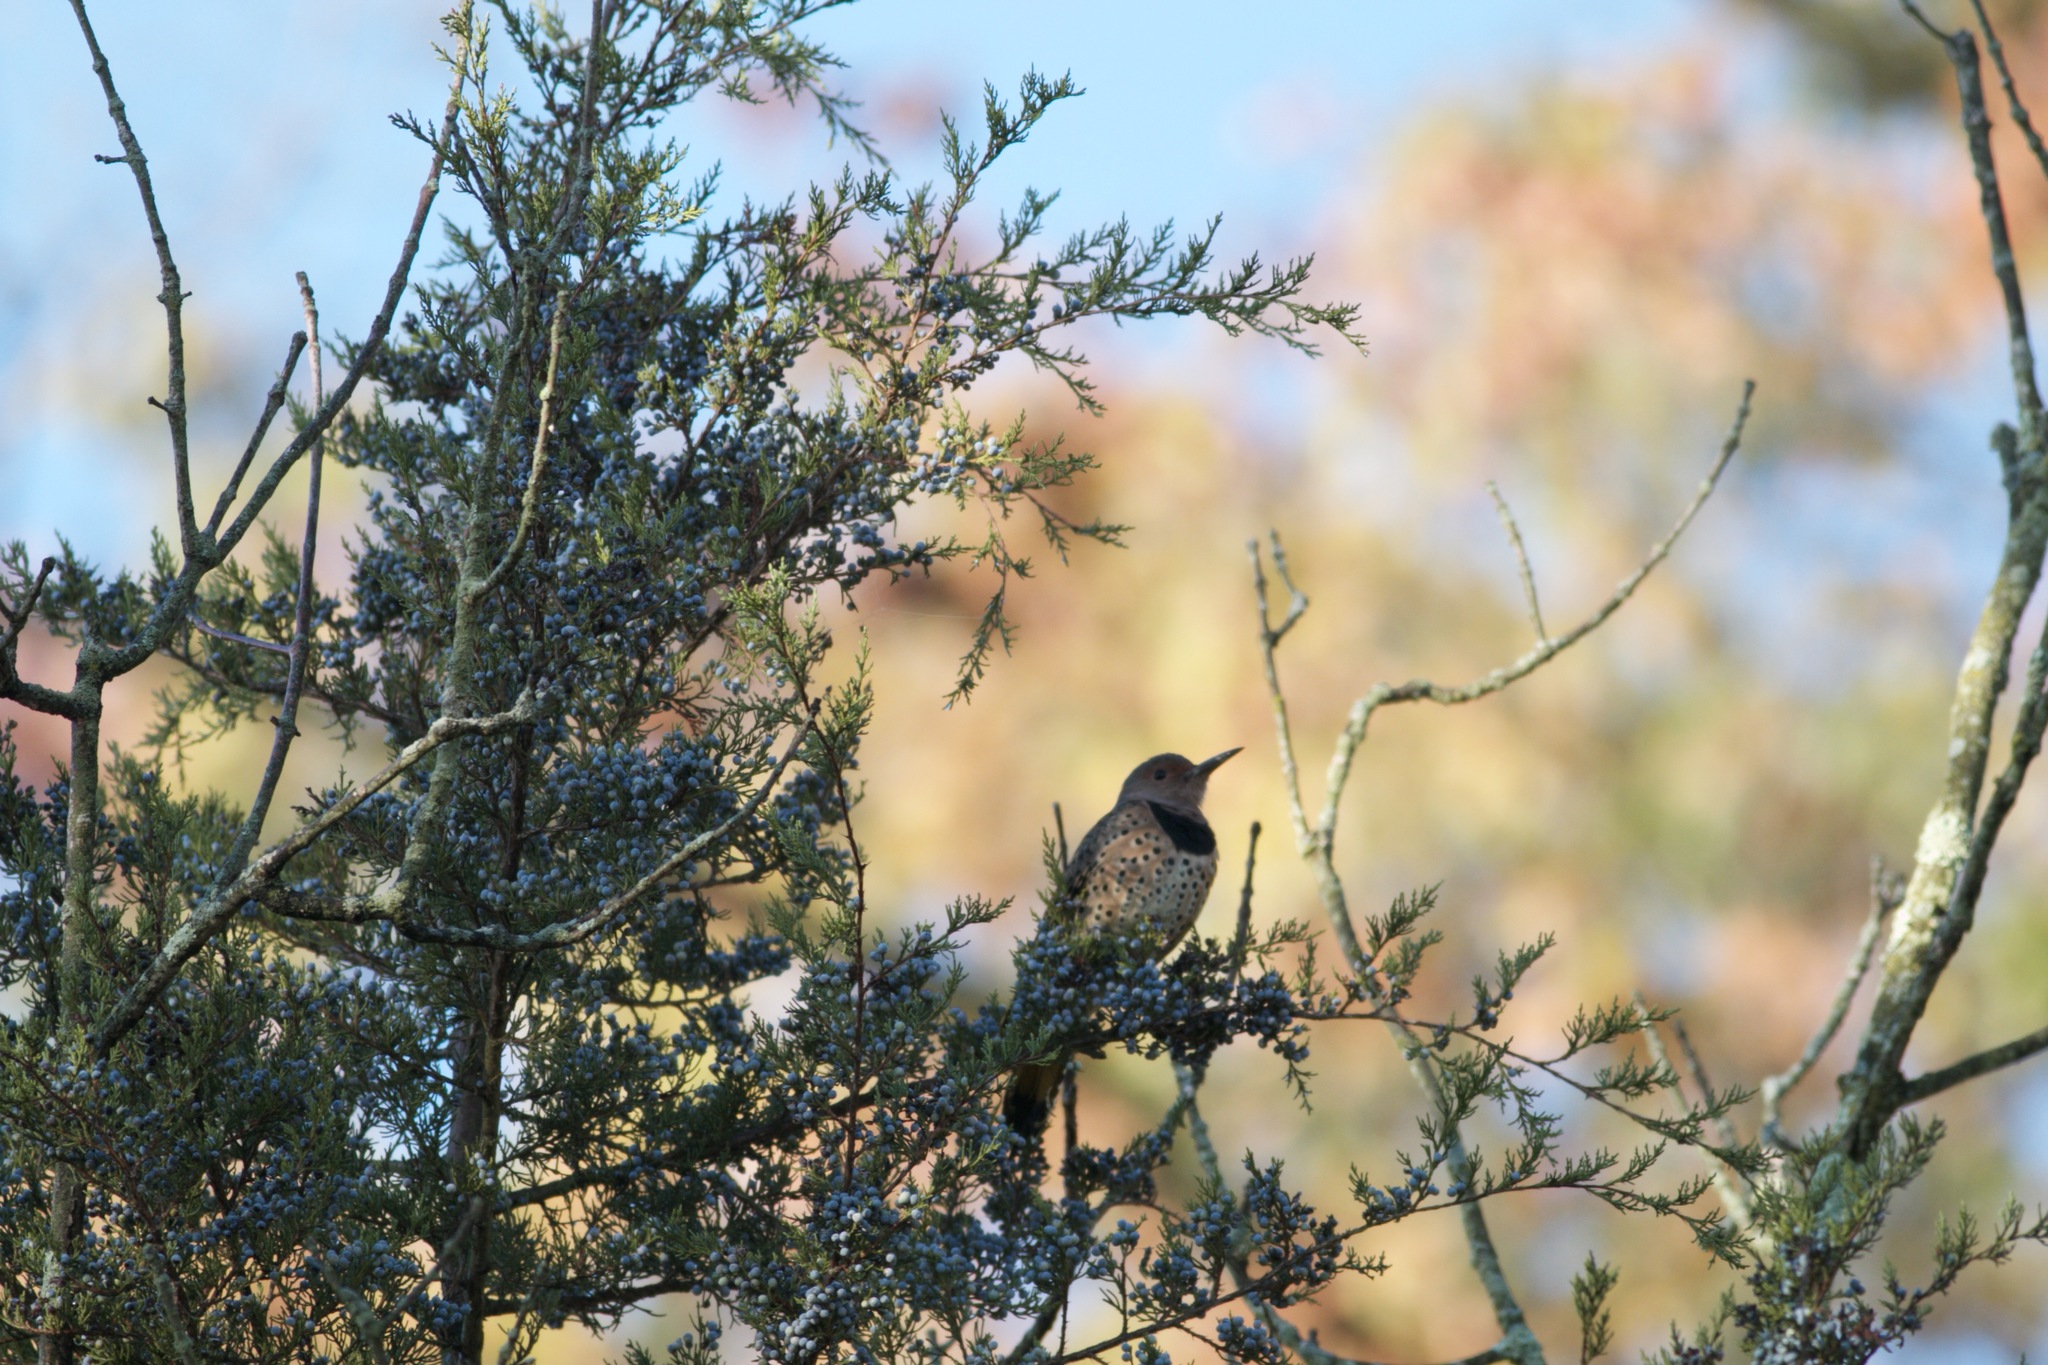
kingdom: Animalia
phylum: Chordata
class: Aves
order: Piciformes
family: Picidae
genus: Colaptes
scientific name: Colaptes auratus
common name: Northern flicker
